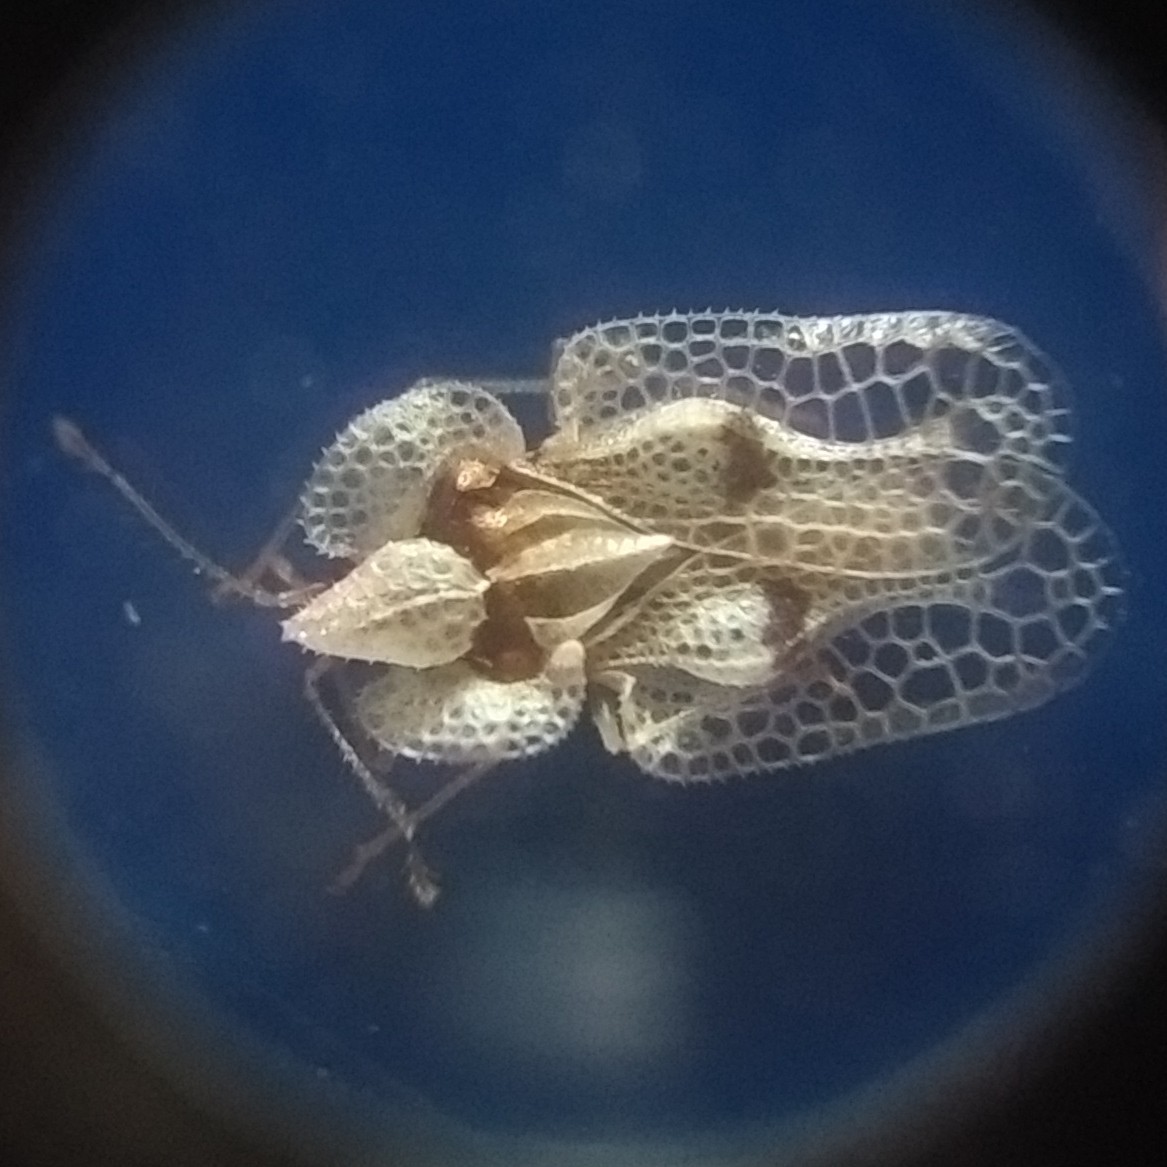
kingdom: Animalia
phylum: Arthropoda
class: Insecta
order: Hemiptera
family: Tingidae
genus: Corythucha
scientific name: Corythucha ciliata
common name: Sycamore lace bug
